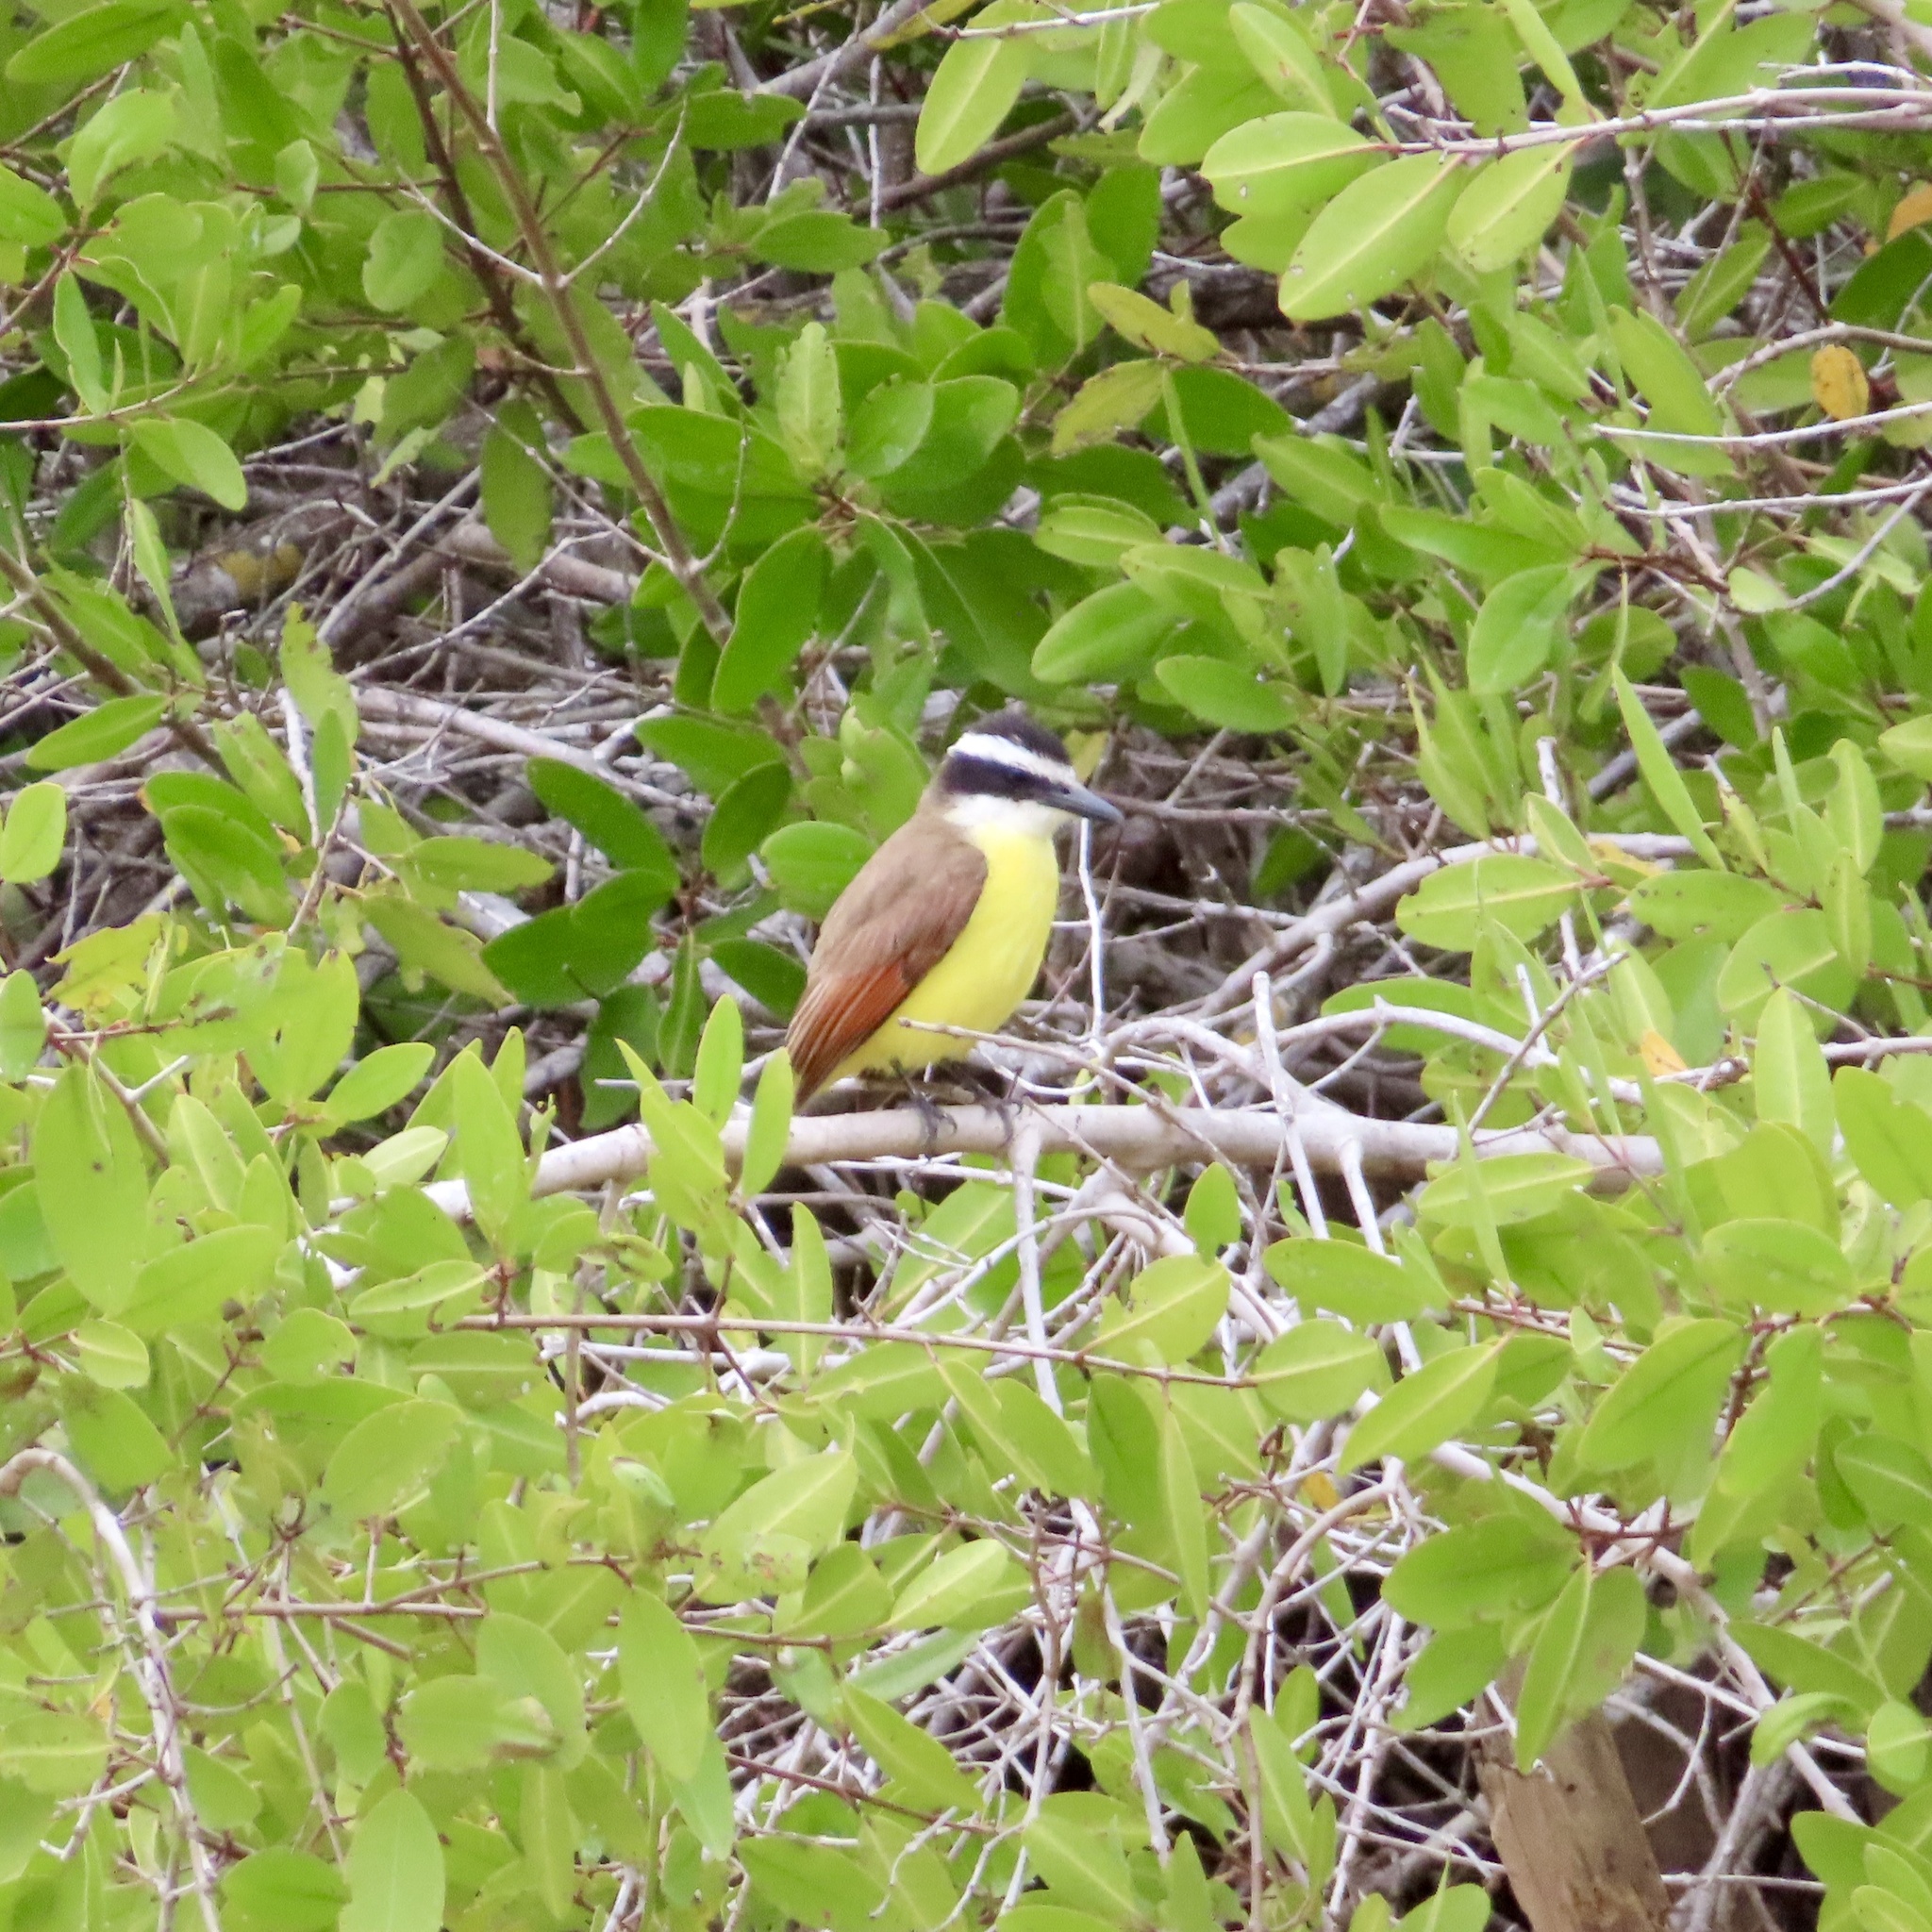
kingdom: Animalia
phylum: Chordata
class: Aves
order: Passeriformes
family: Tyrannidae
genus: Pitangus
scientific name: Pitangus sulphuratus
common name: Great kiskadee
